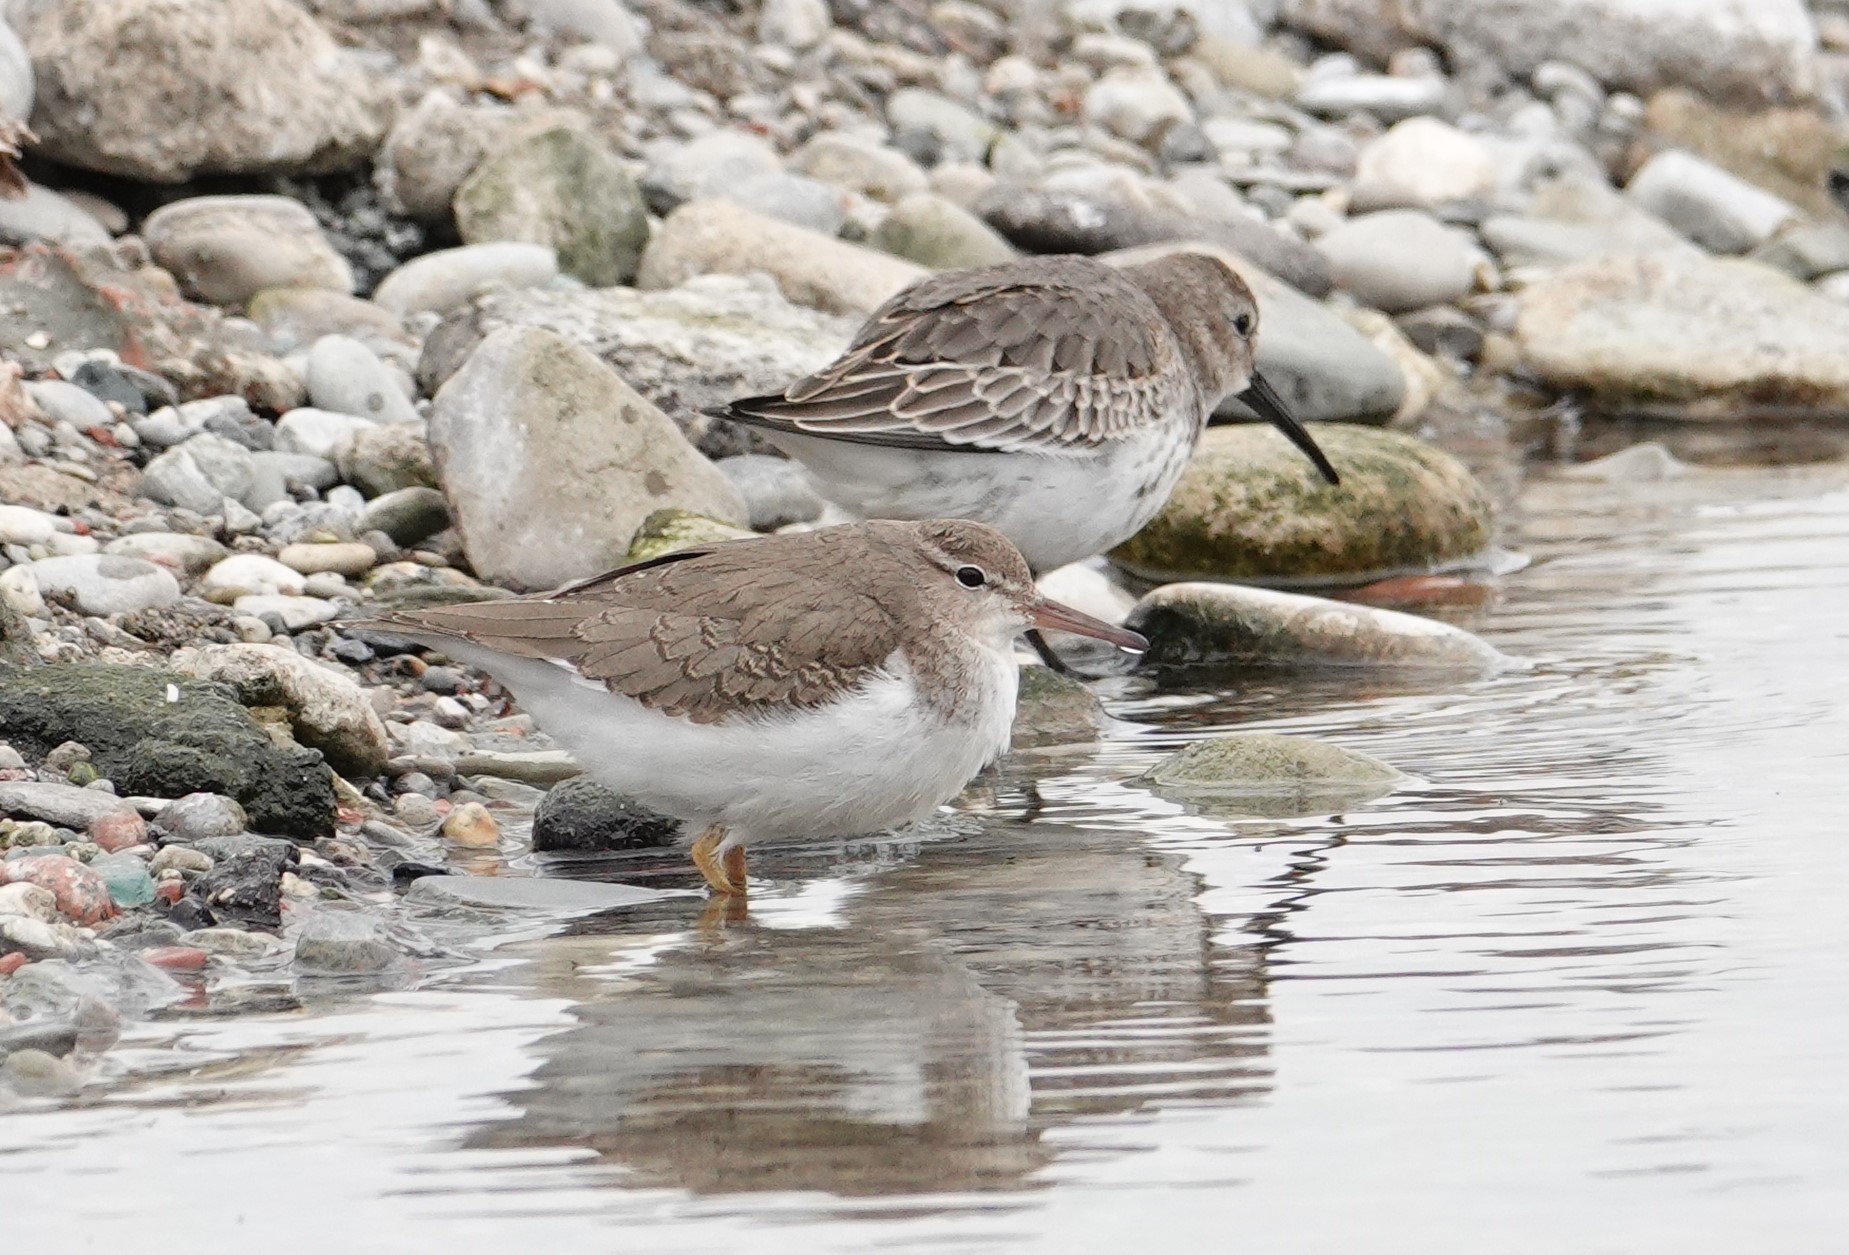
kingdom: Animalia
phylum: Chordata
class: Aves
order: Charadriiformes
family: Scolopacidae
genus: Actitis
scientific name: Actitis macularius
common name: Spotted sandpiper
